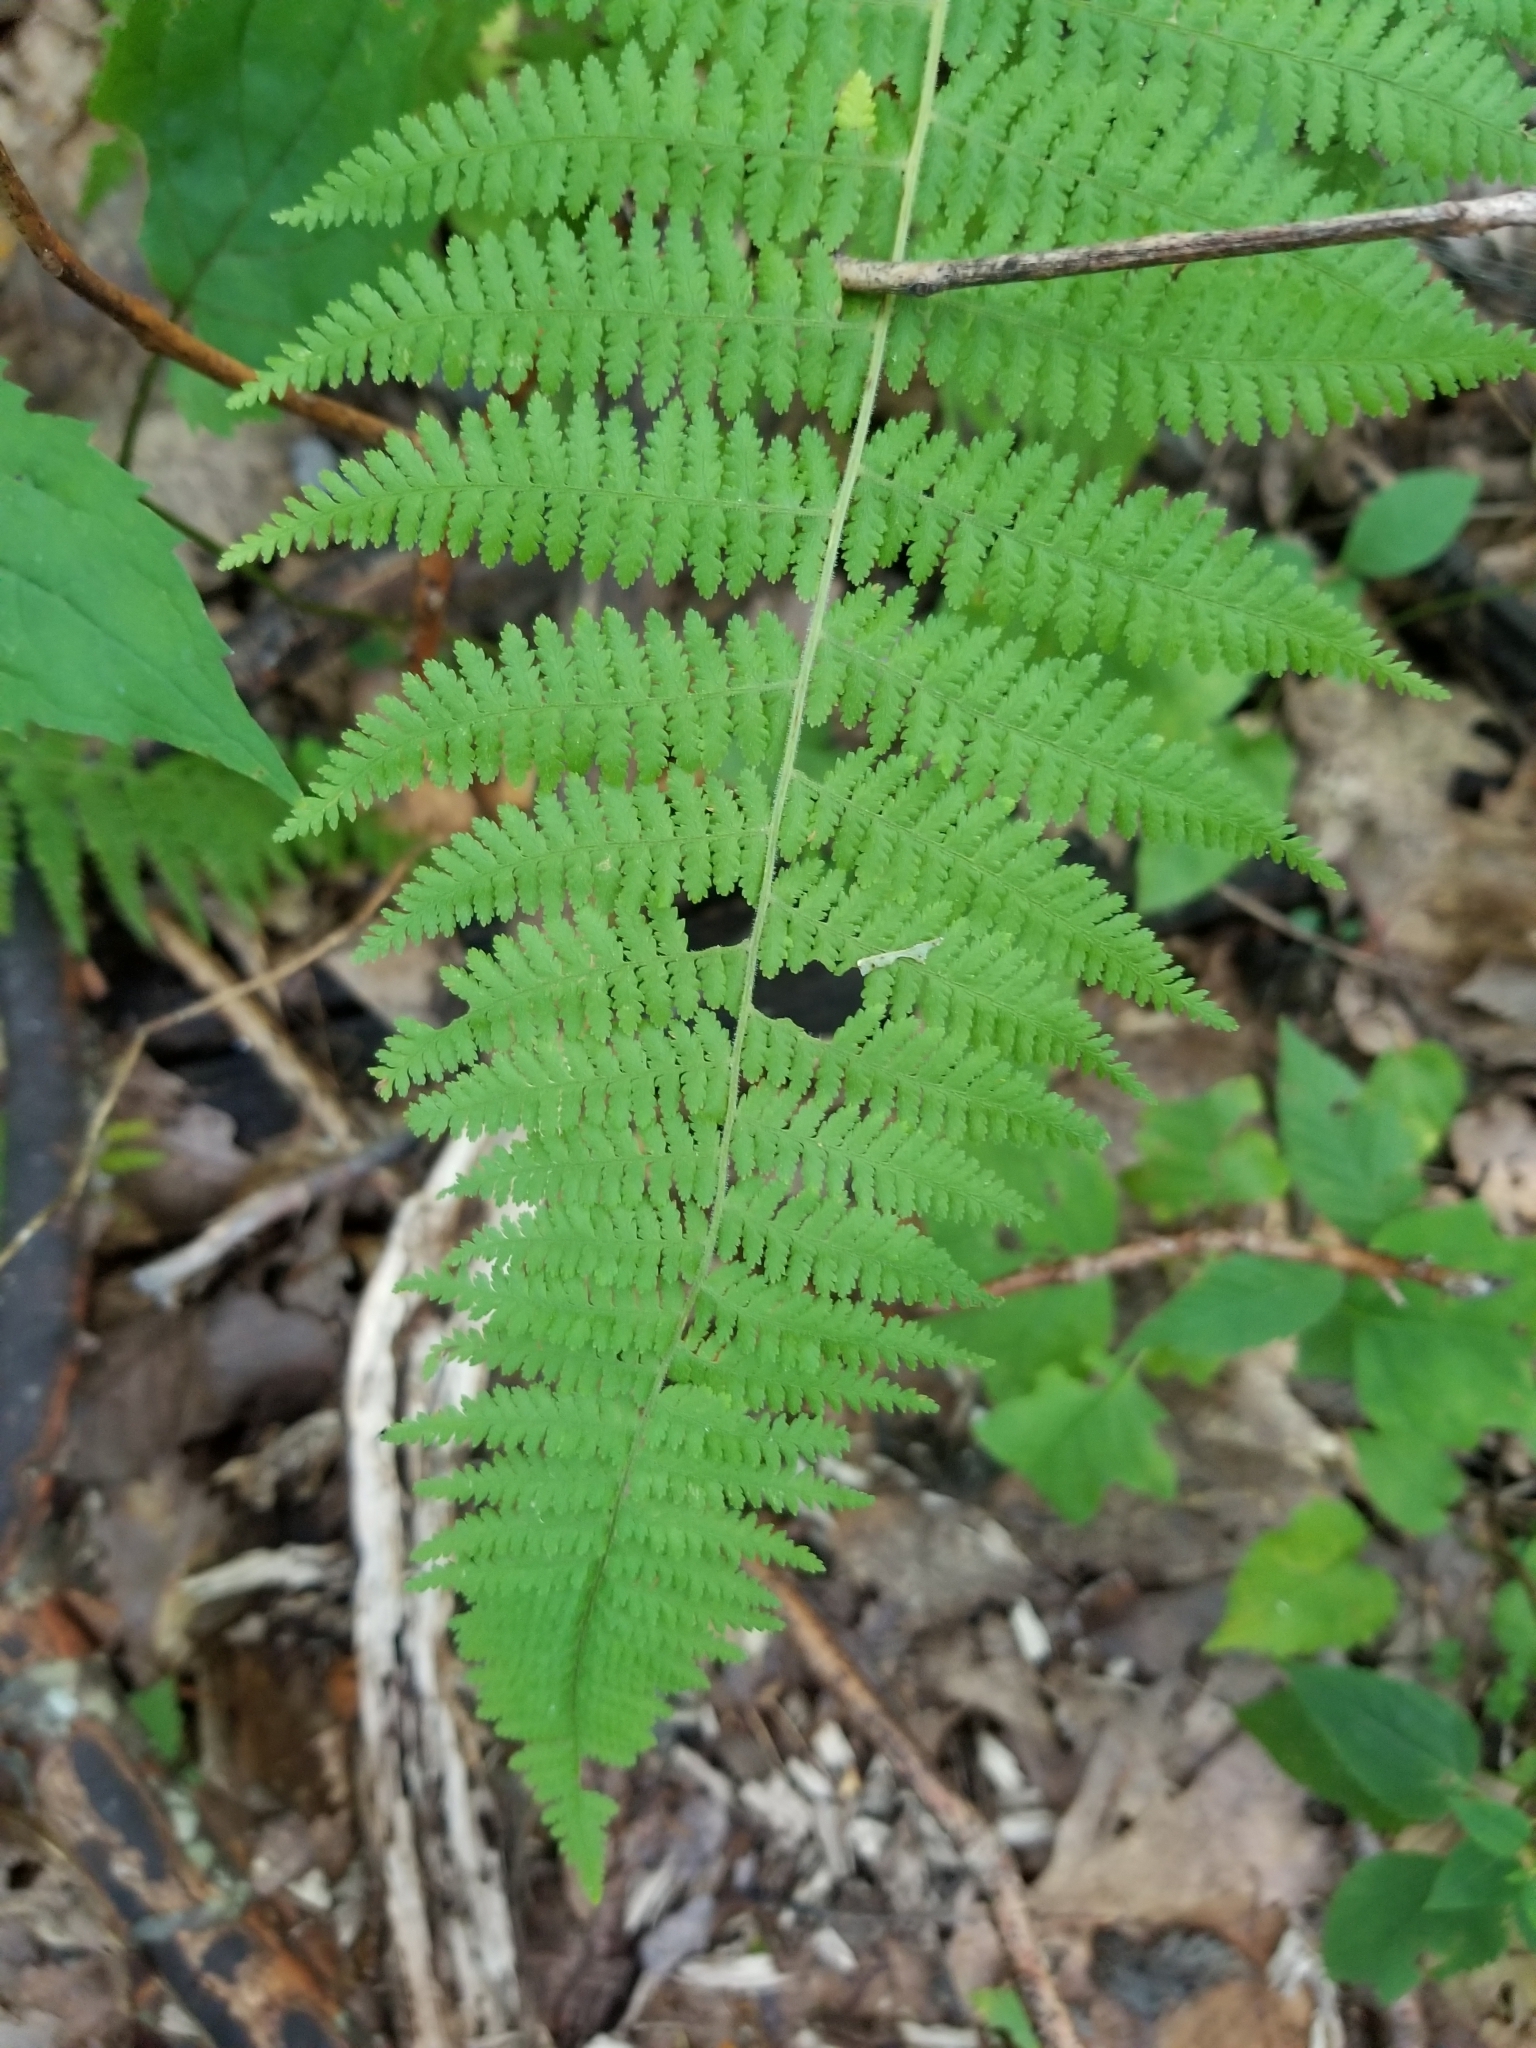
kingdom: Plantae
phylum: Tracheophyta
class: Polypodiopsida
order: Polypodiales
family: Dennstaedtiaceae
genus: Sitobolium
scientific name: Sitobolium punctilobum
